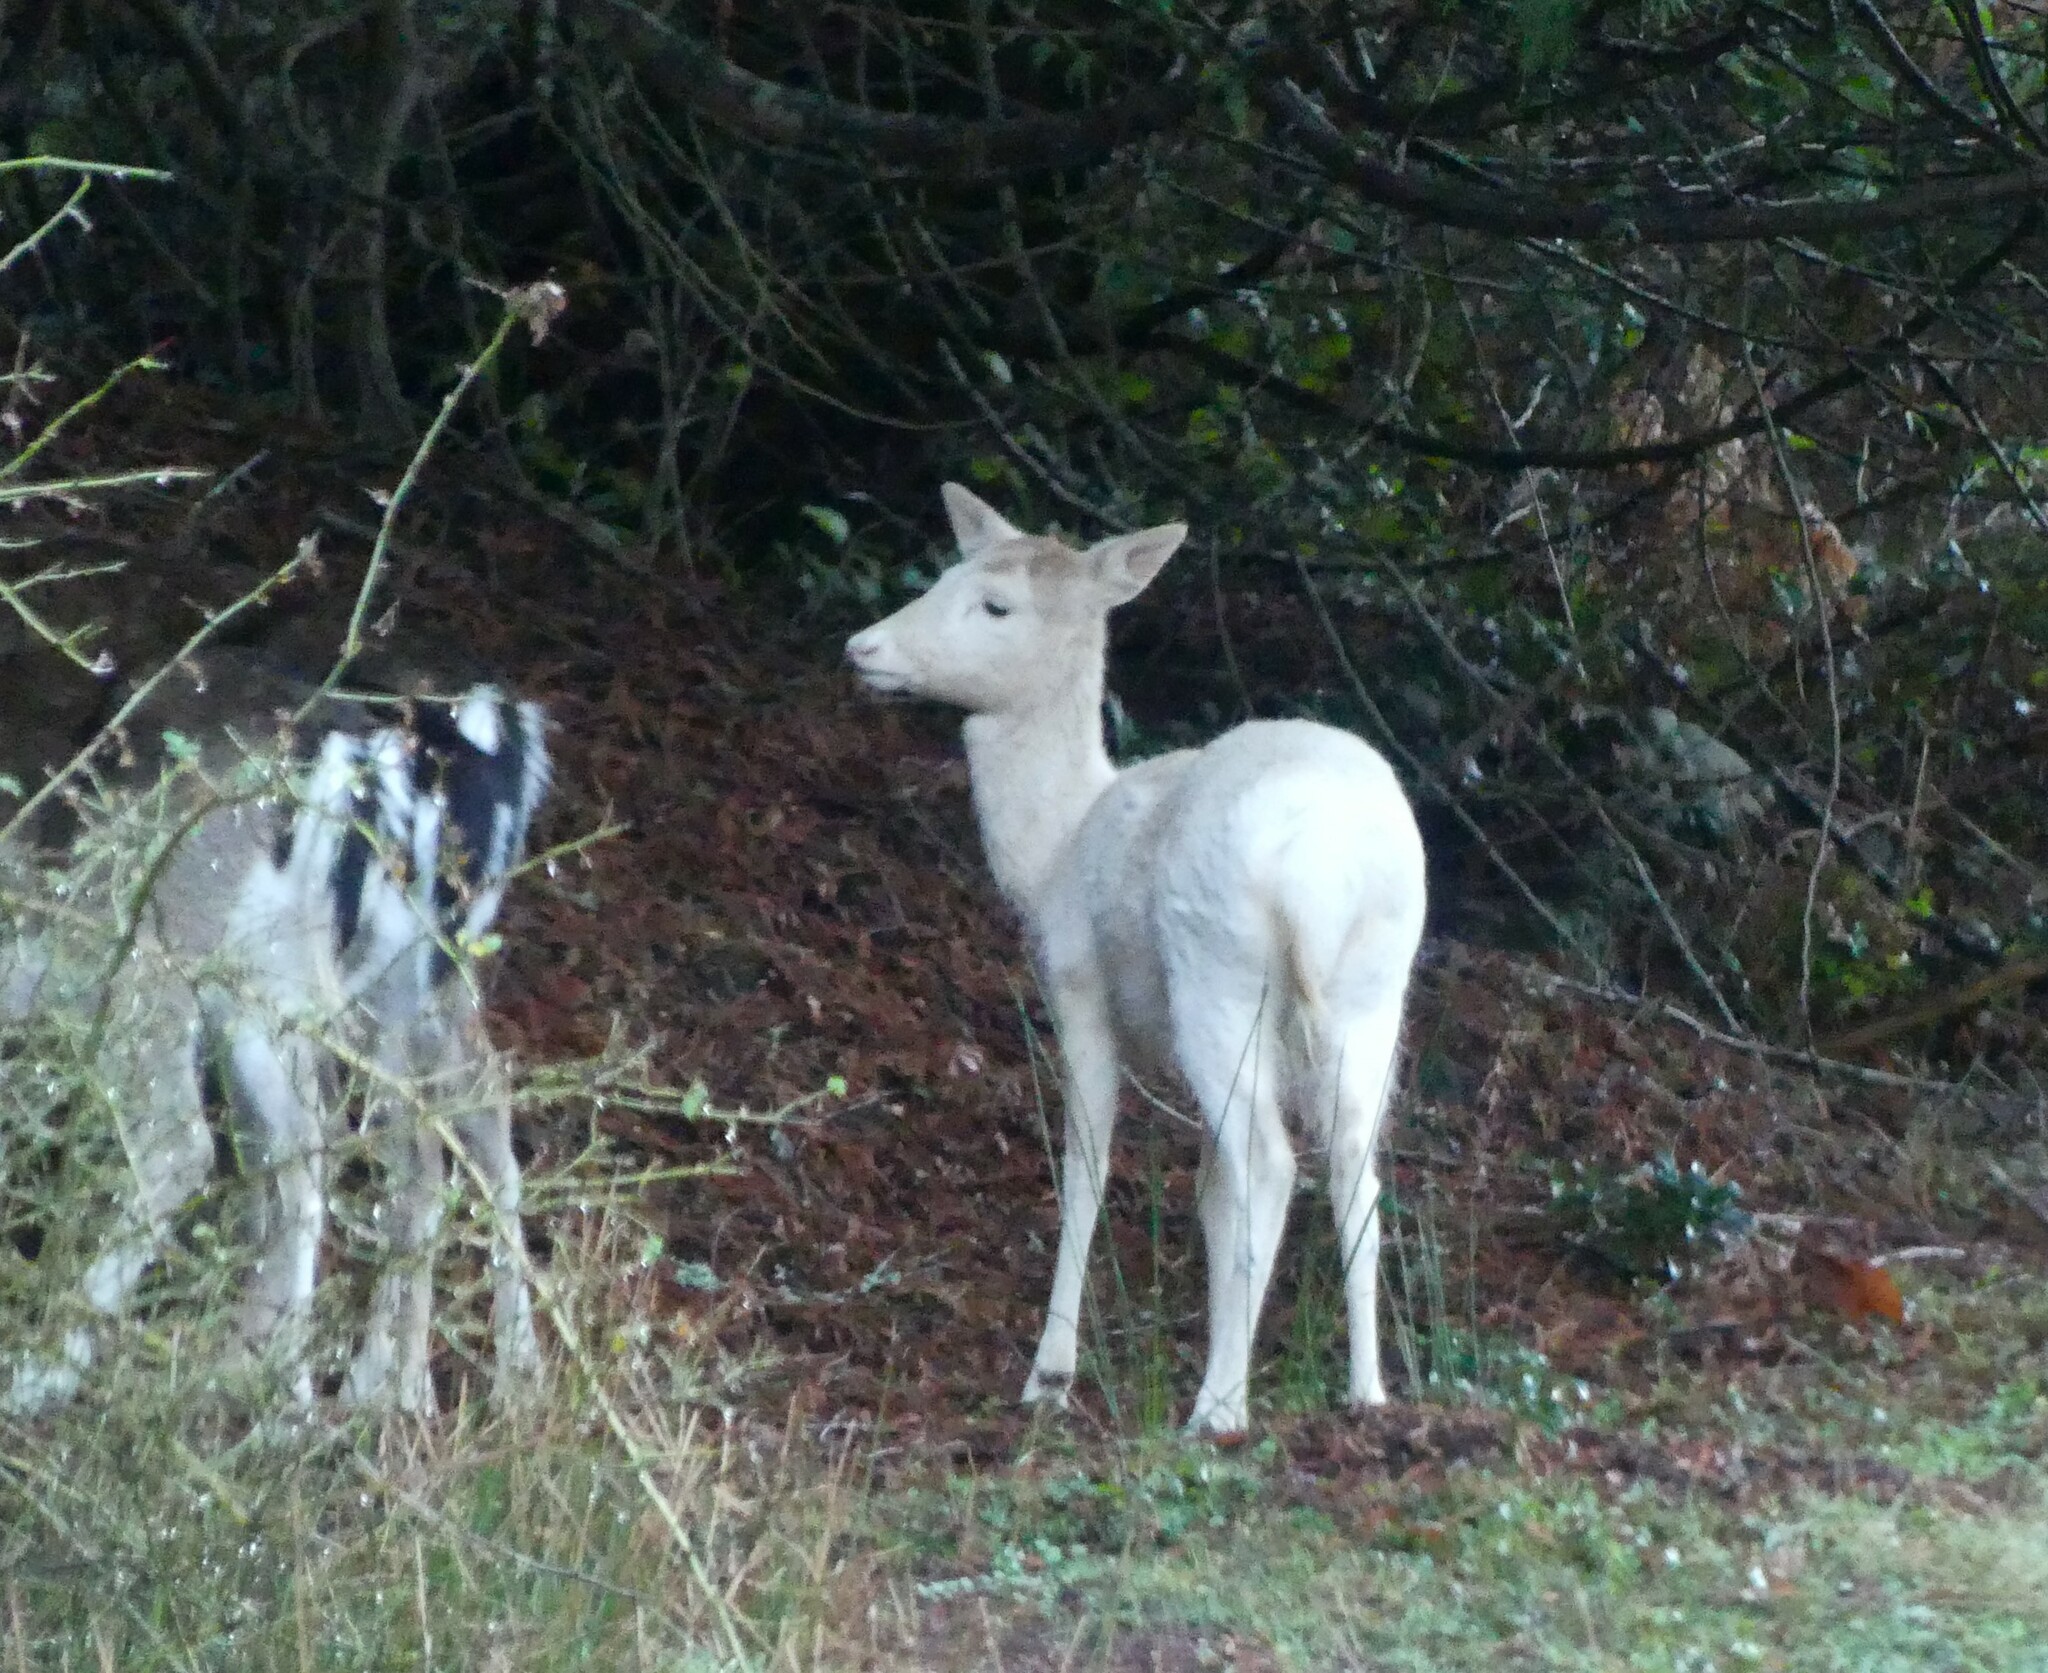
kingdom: Animalia
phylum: Chordata
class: Mammalia
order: Artiodactyla
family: Cervidae
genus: Dama
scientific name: Dama dama
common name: Fallow deer
